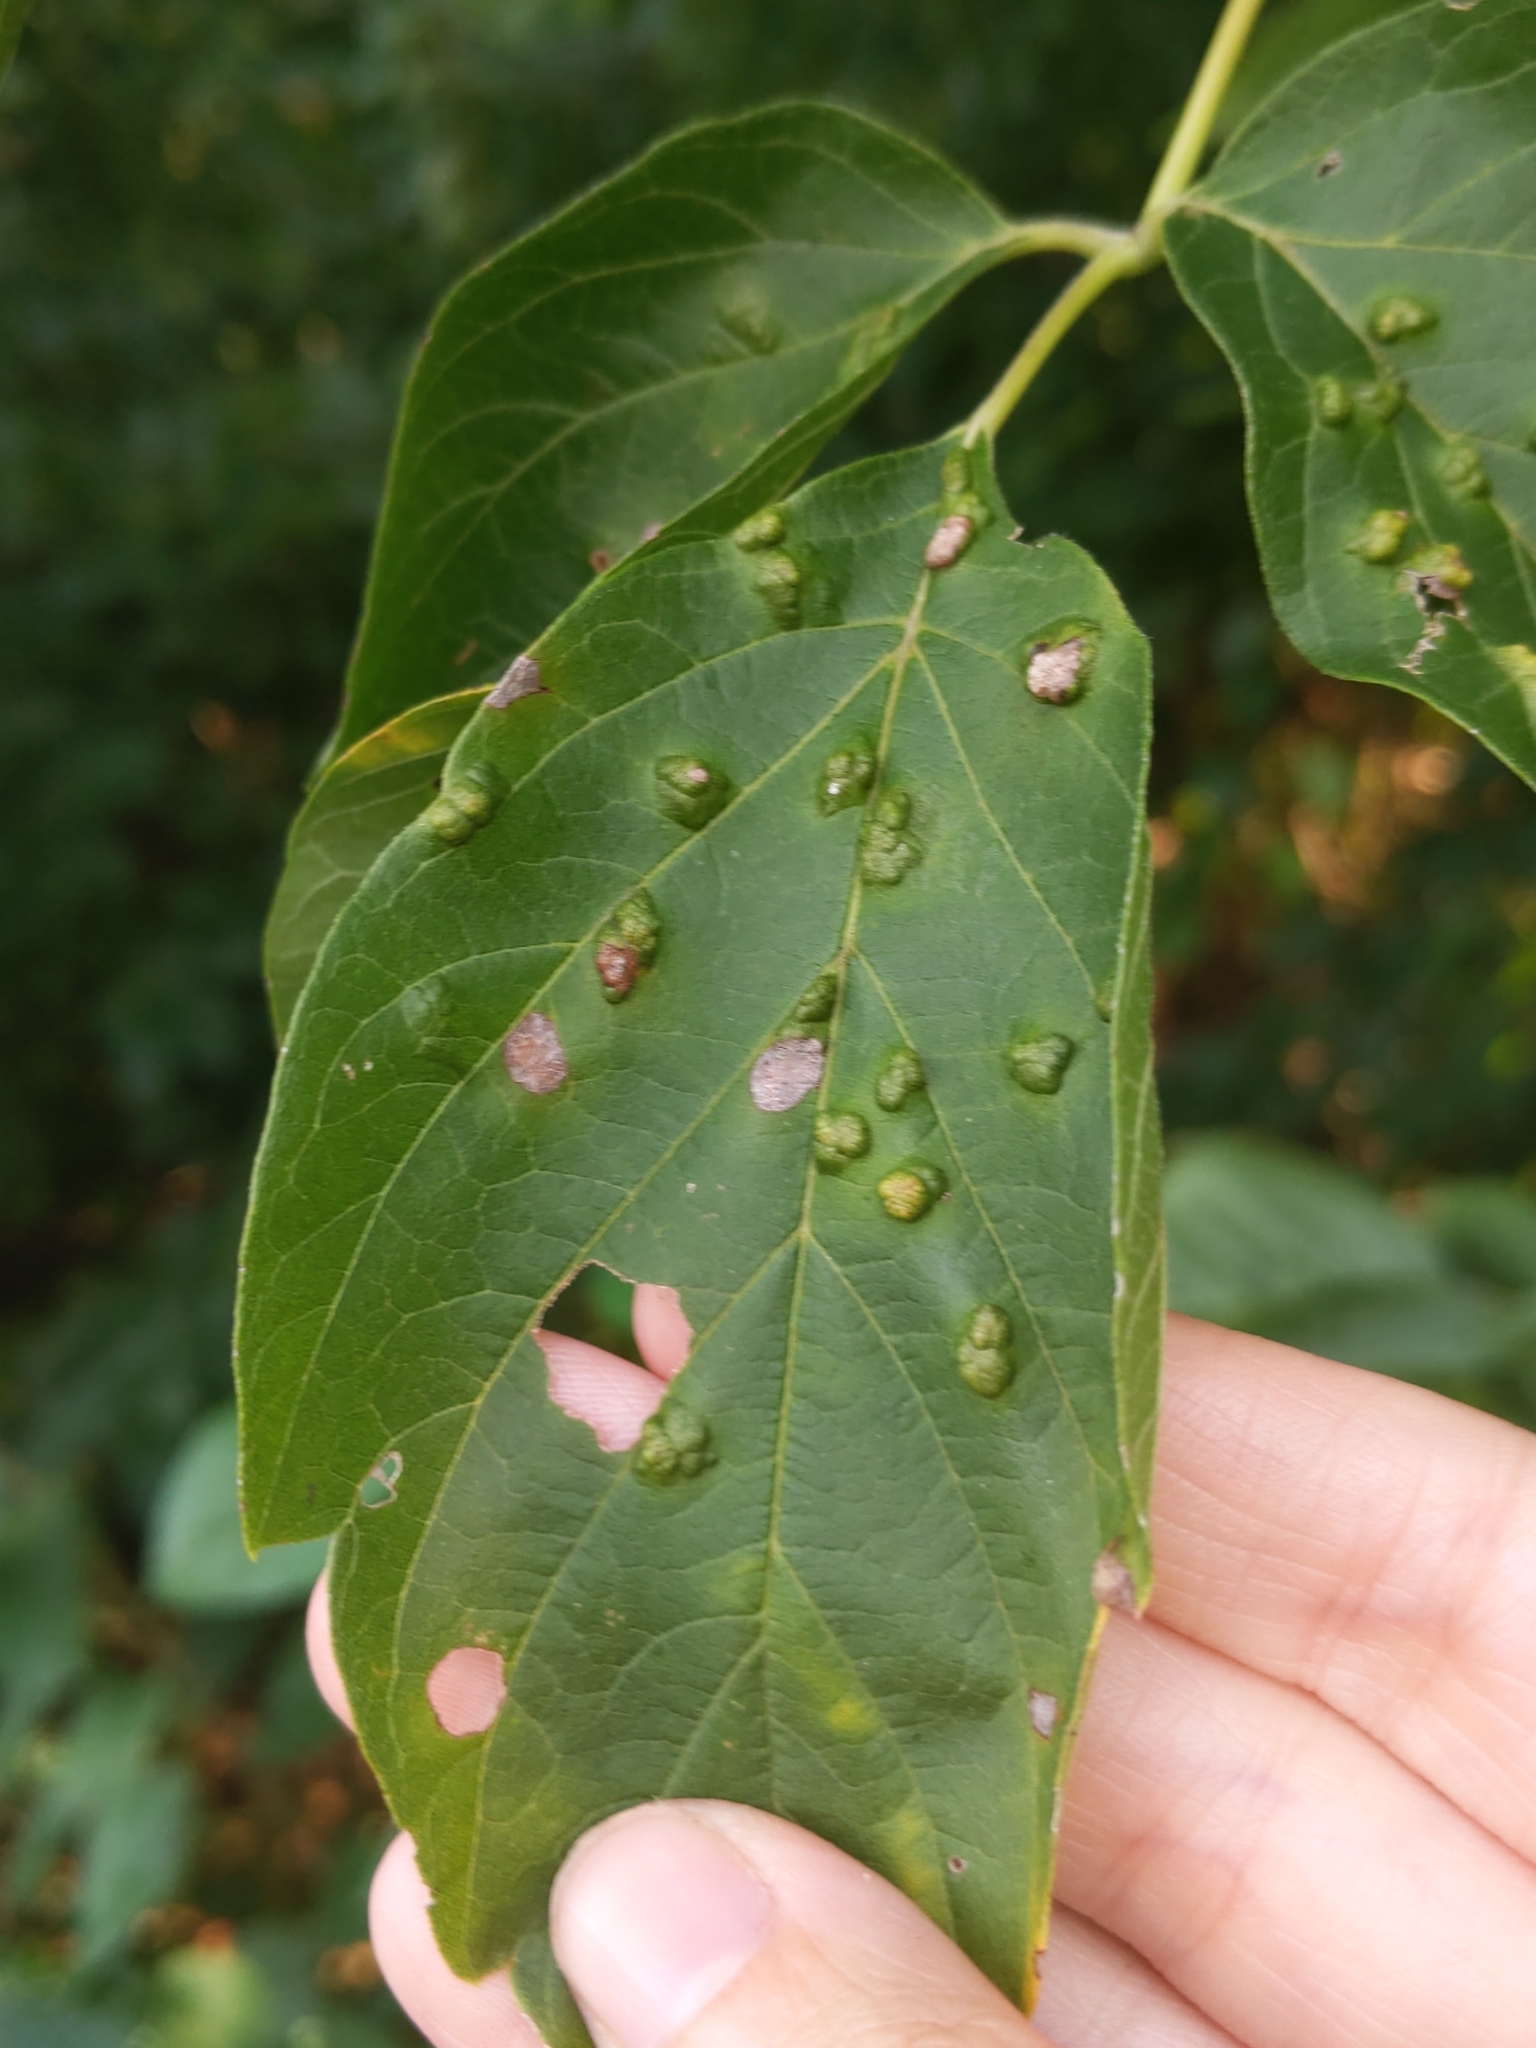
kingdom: Animalia
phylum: Arthropoda
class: Arachnida
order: Trombidiformes
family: Eriophyidae
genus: Aceria
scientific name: Aceria
